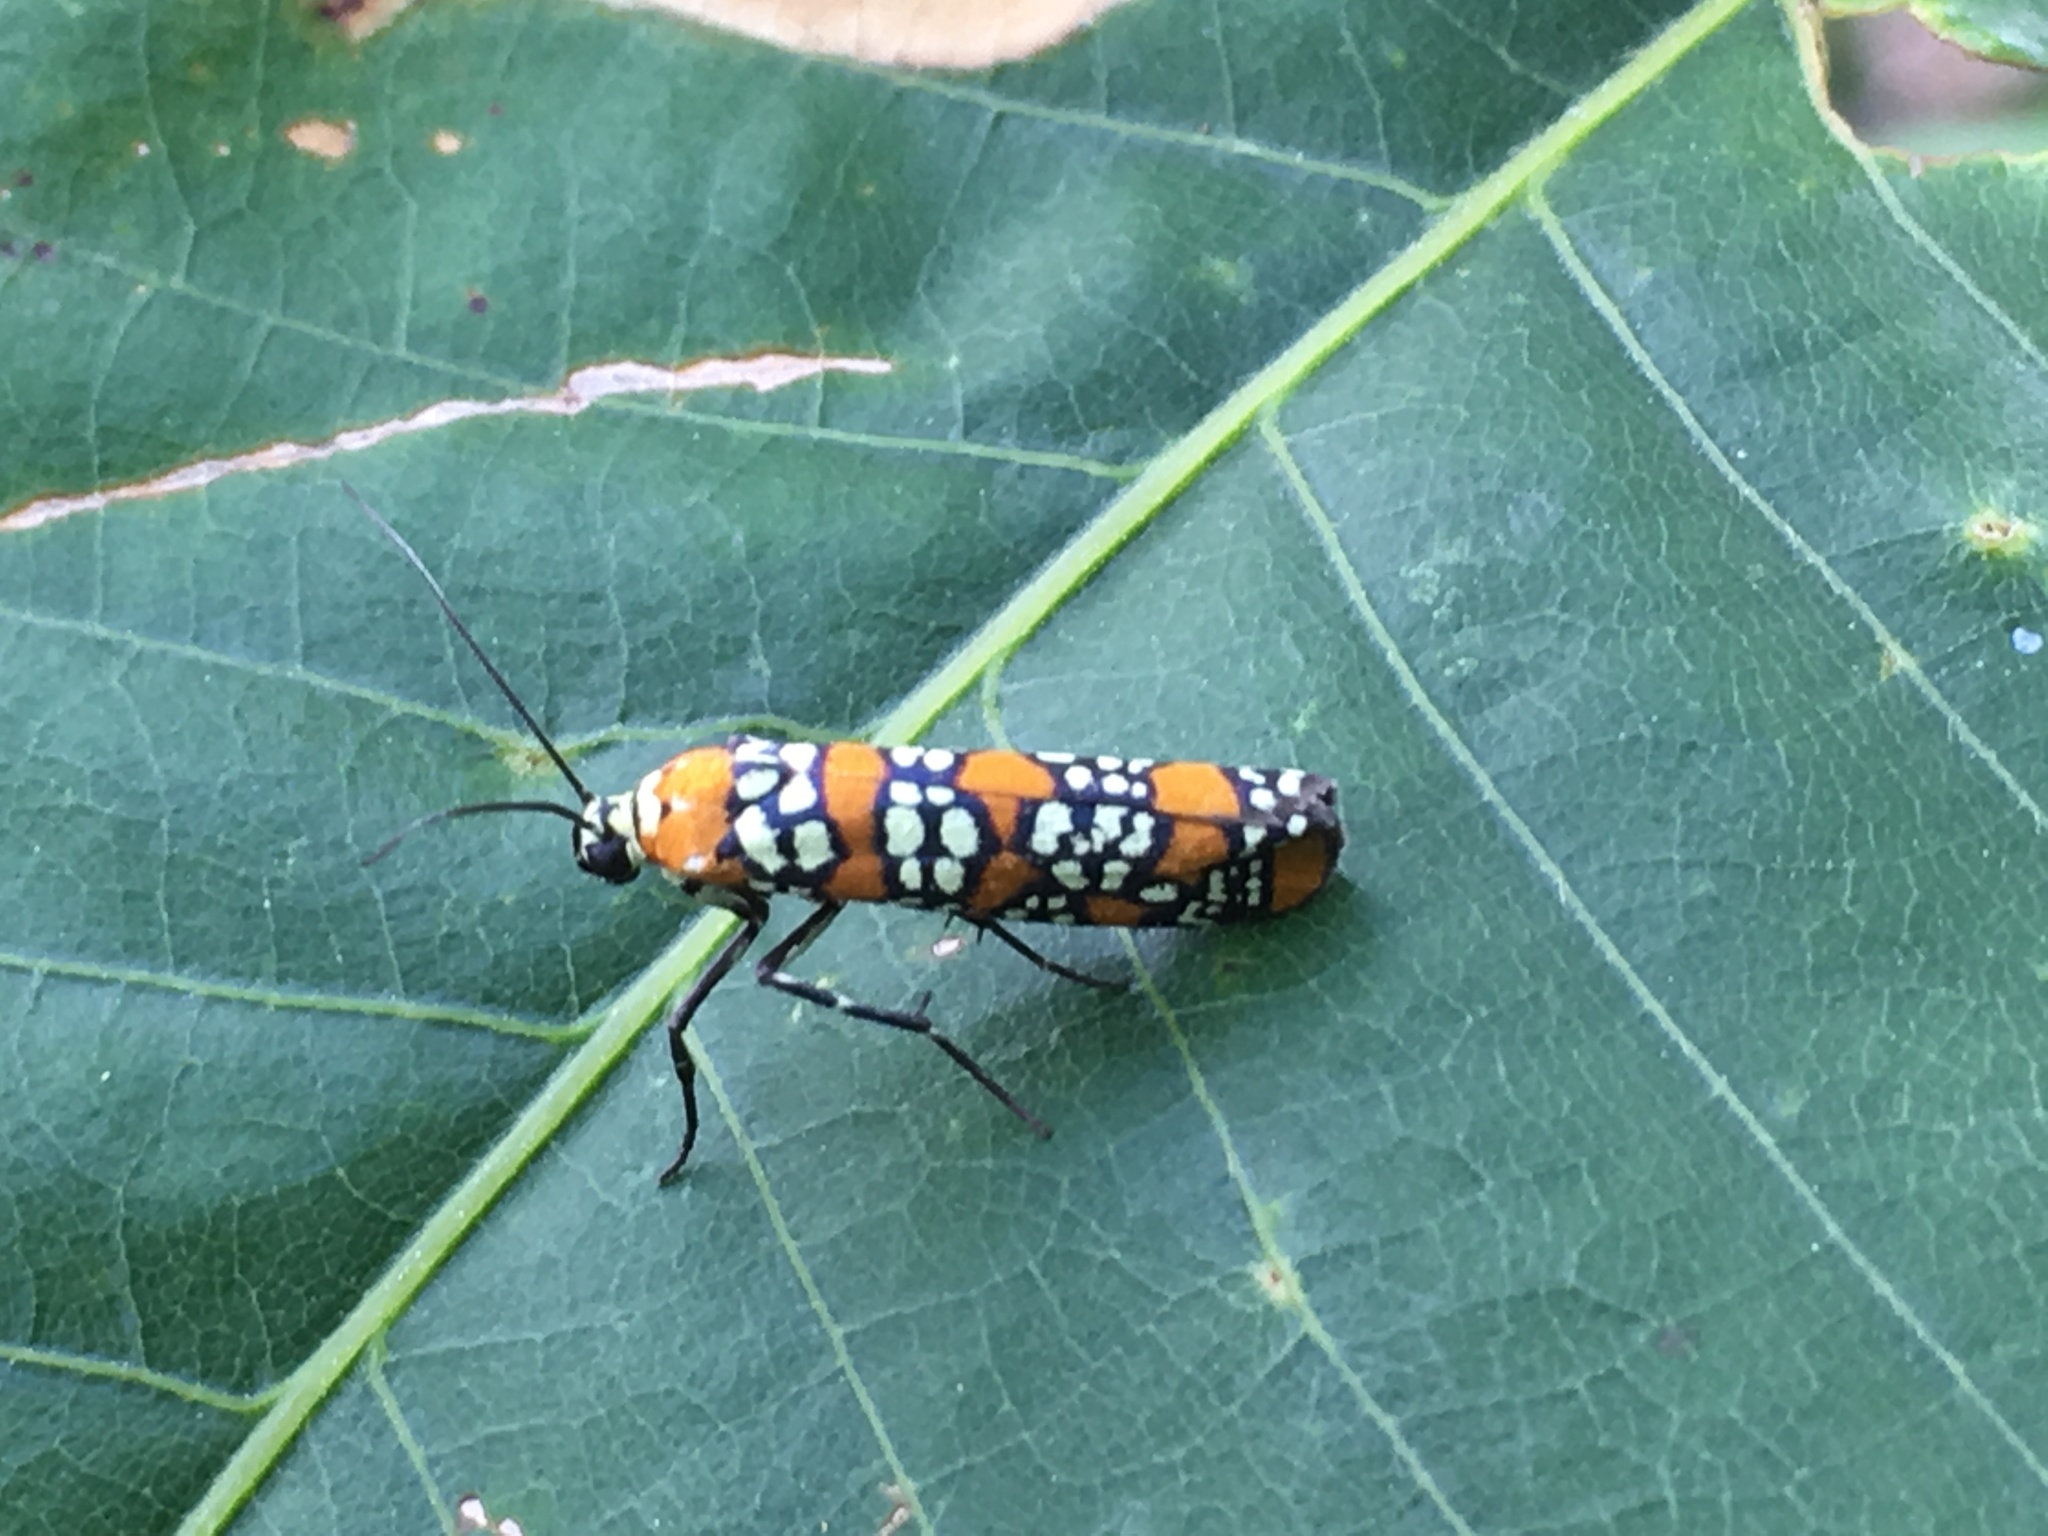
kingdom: Animalia
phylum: Arthropoda
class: Insecta
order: Lepidoptera
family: Attevidae
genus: Atteva
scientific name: Atteva punctella
